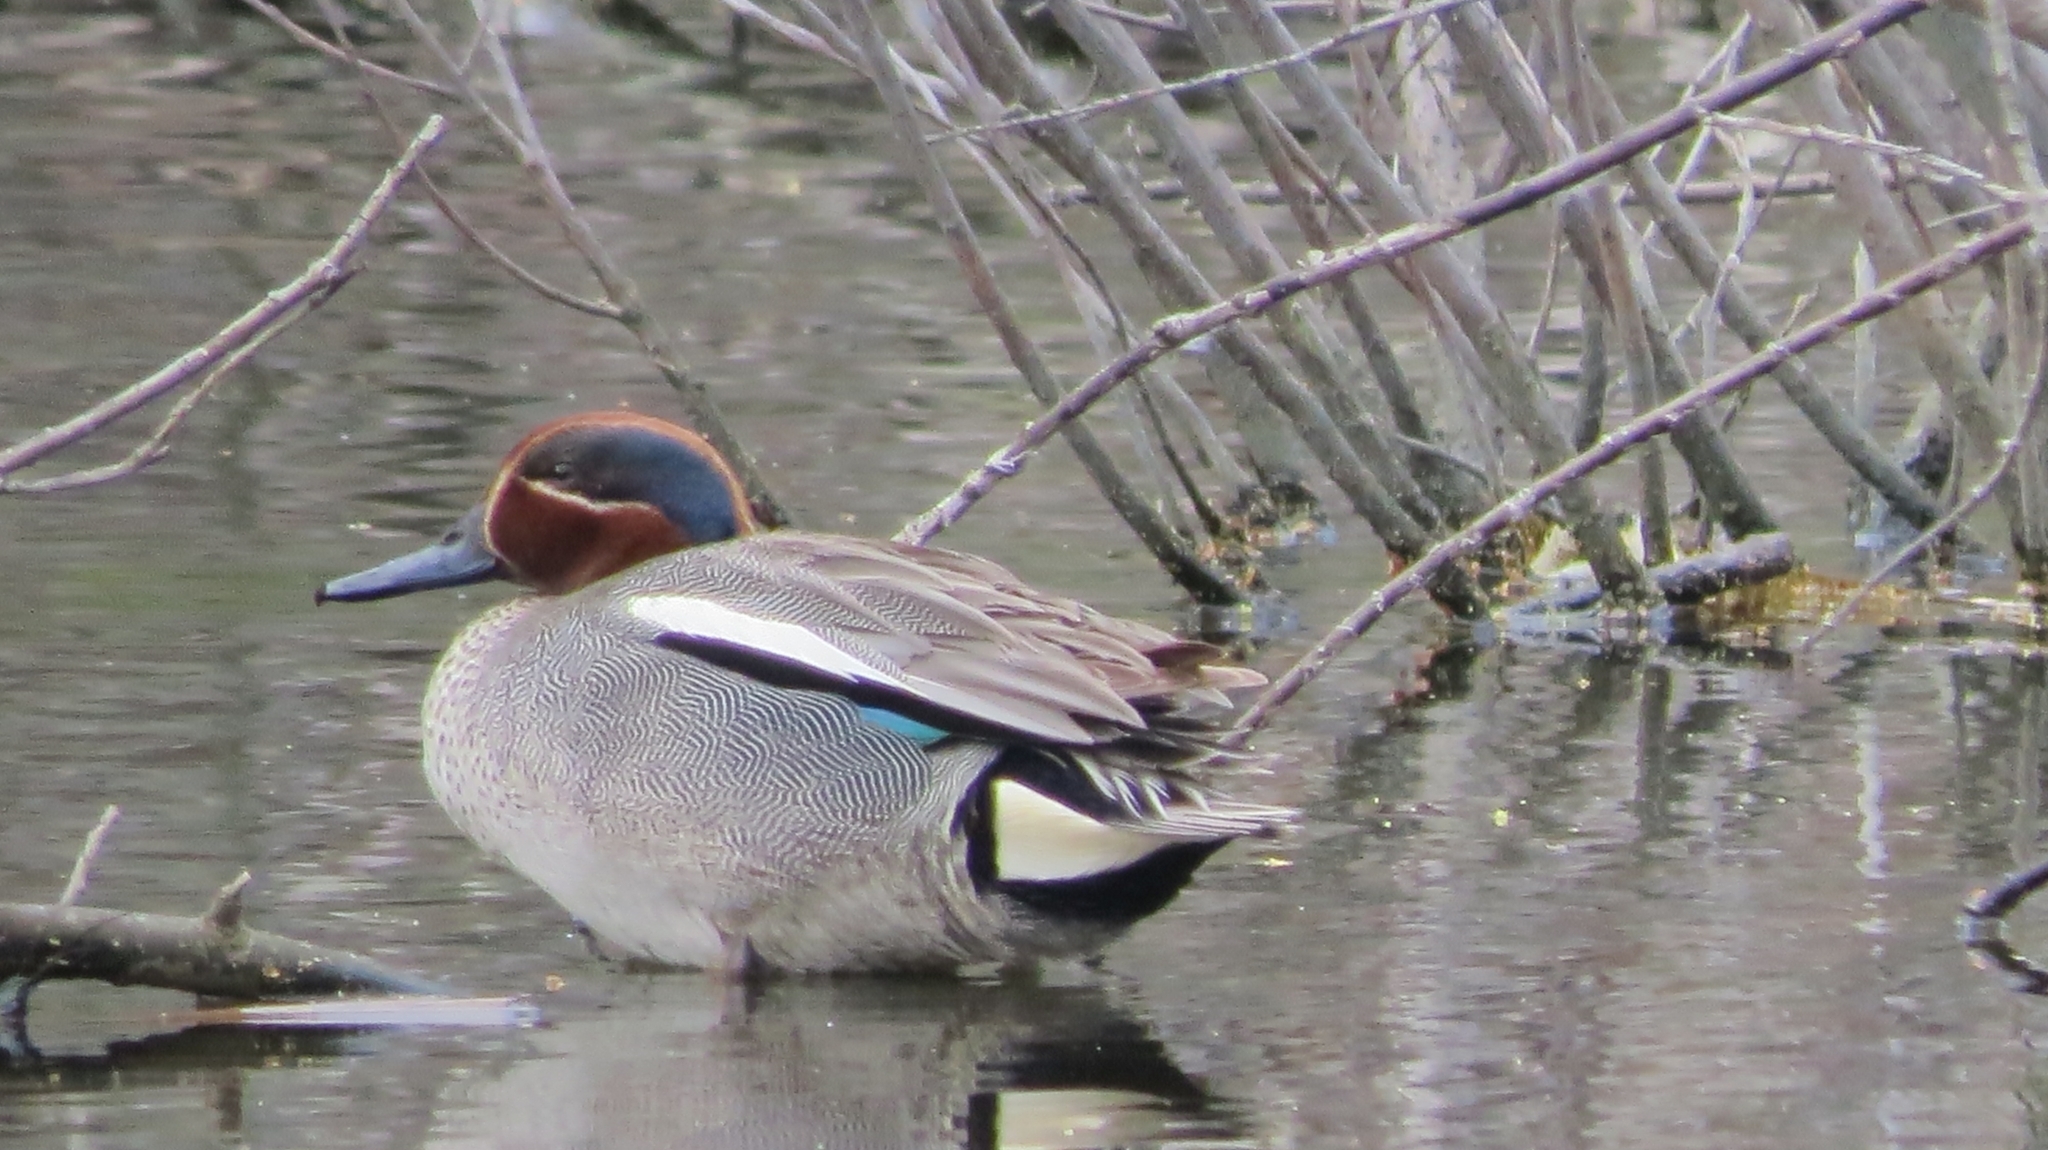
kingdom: Animalia
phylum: Chordata
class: Aves
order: Anseriformes
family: Anatidae
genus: Anas
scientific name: Anas crecca
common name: Eurasian teal
